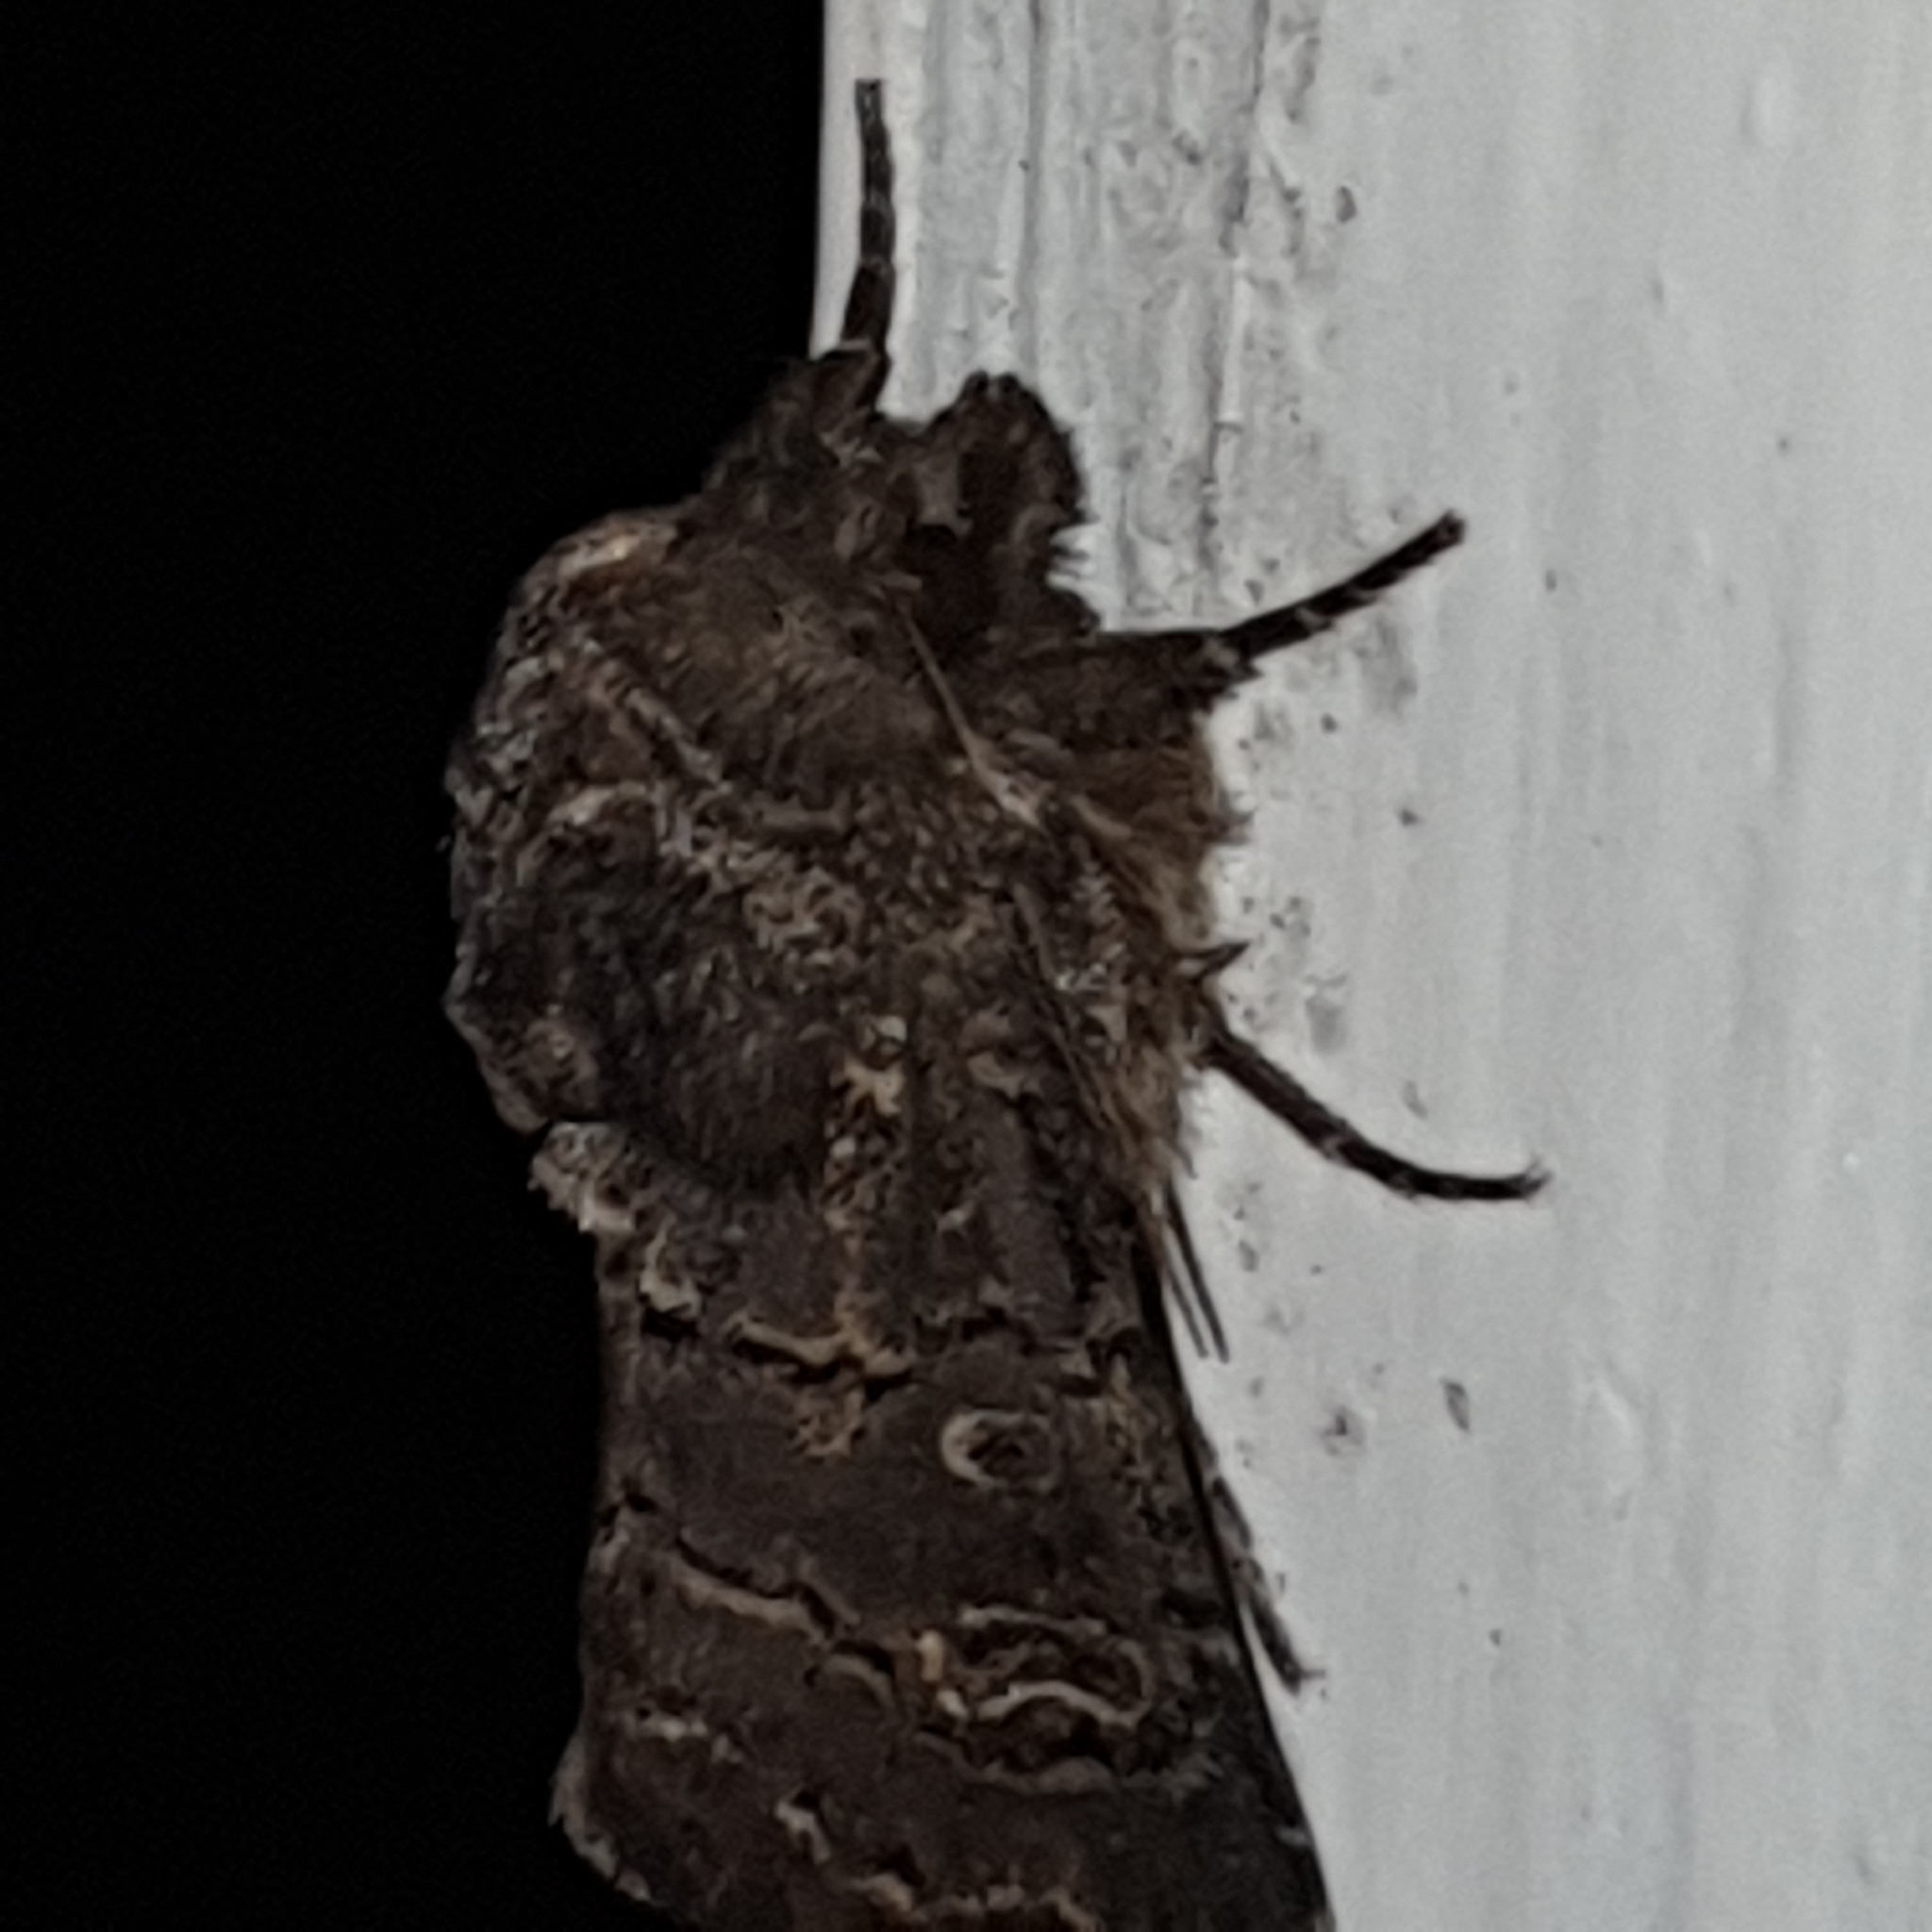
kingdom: Animalia
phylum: Arthropoda
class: Insecta
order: Lepidoptera
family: Noctuidae
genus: Tholera
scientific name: Tholera cespitis
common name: Hedge rustic
